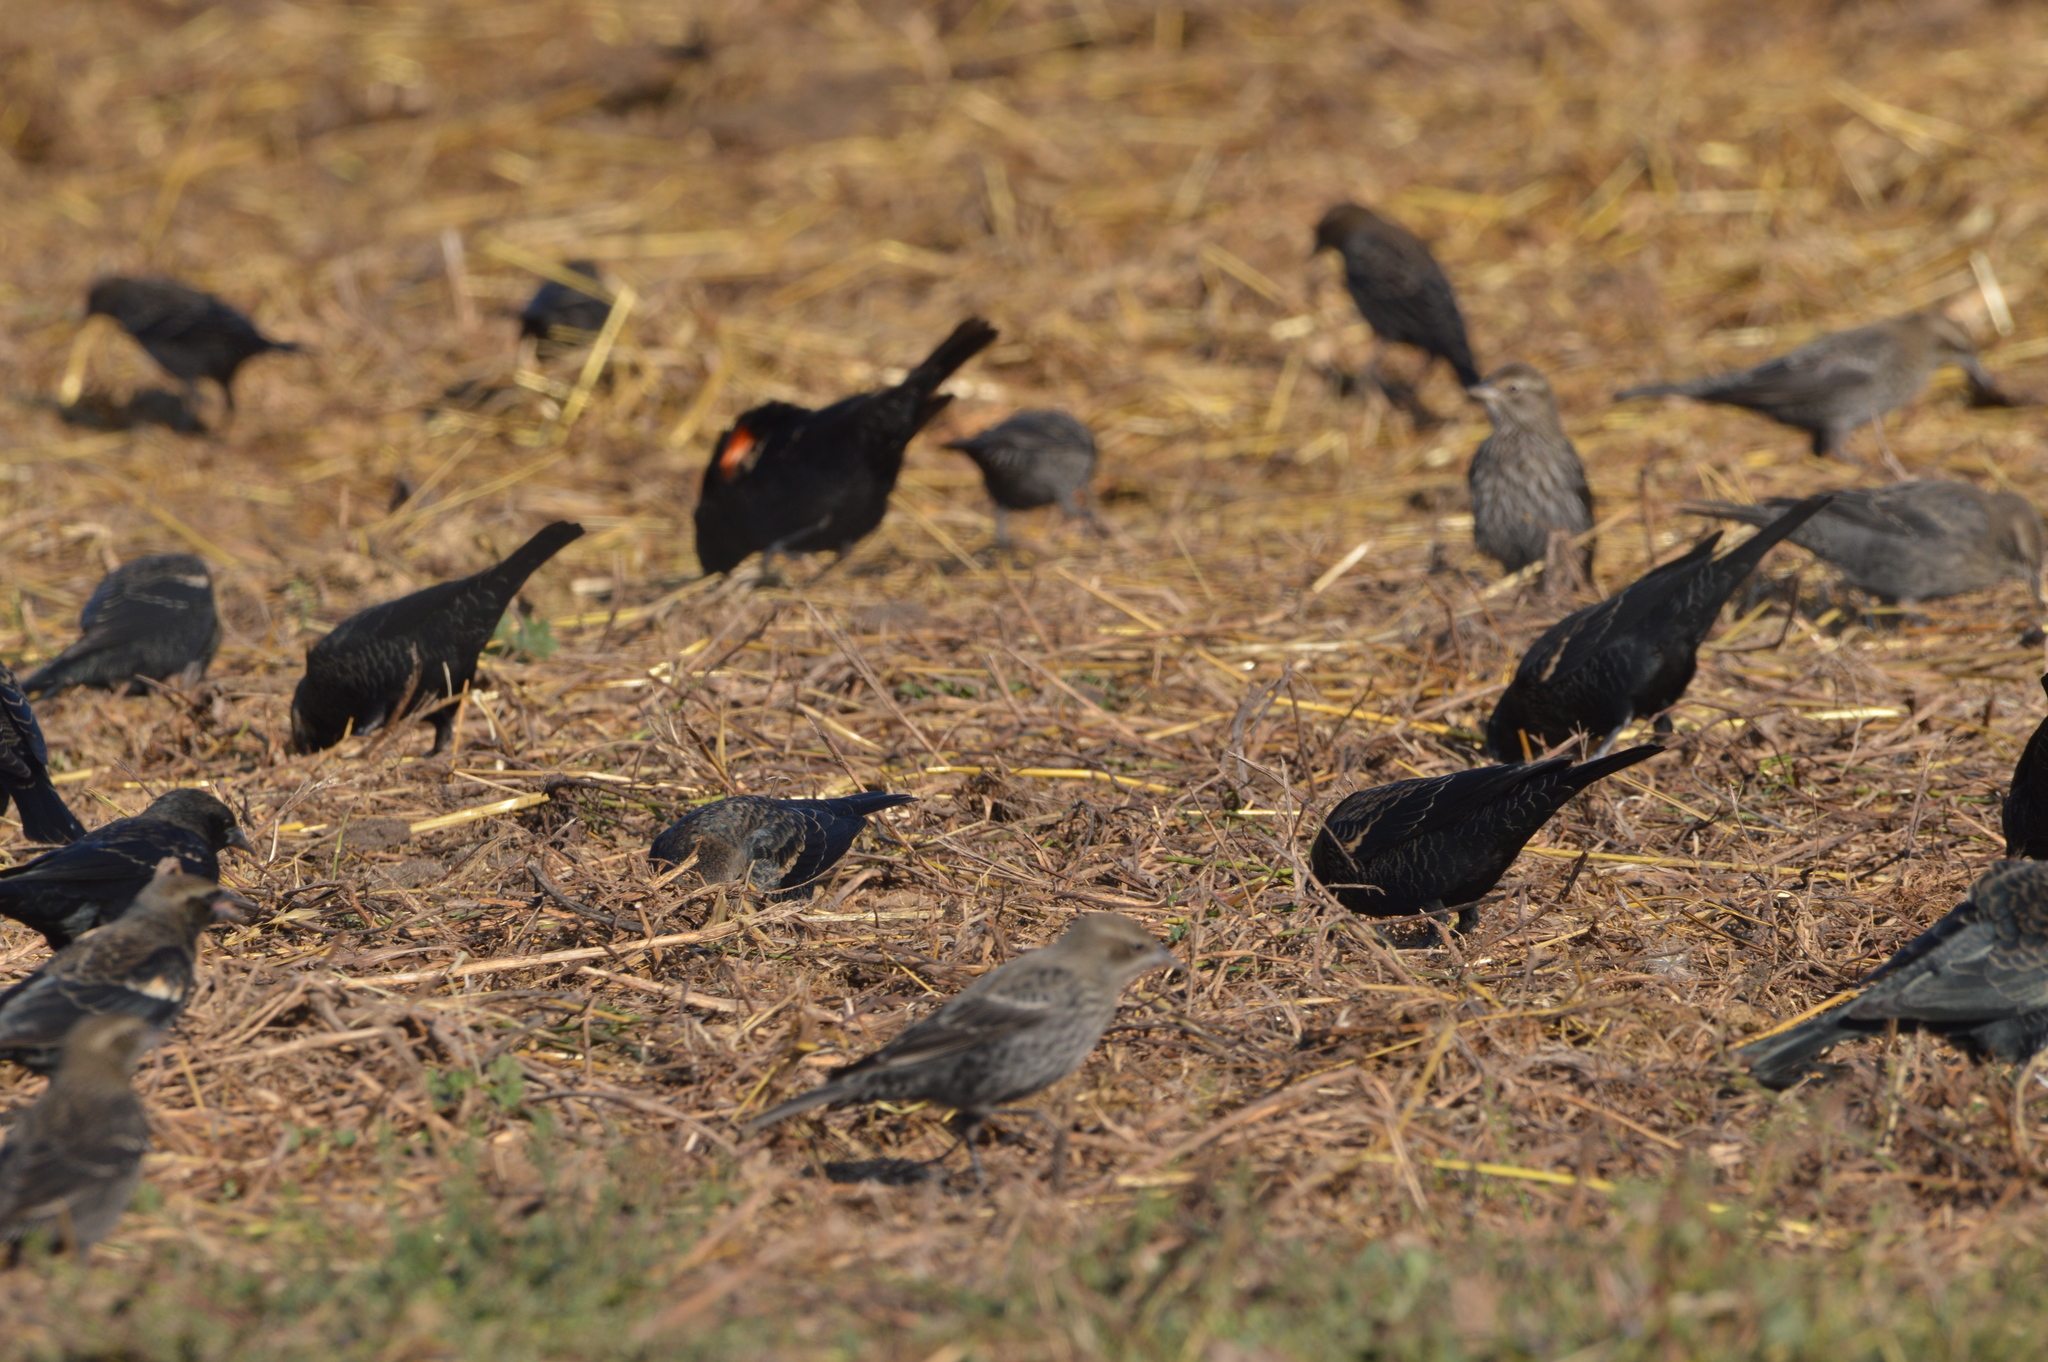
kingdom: Animalia
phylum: Chordata
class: Aves
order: Passeriformes
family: Icteridae
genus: Agelaius
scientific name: Agelaius phoeniceus
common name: Red-winged blackbird
